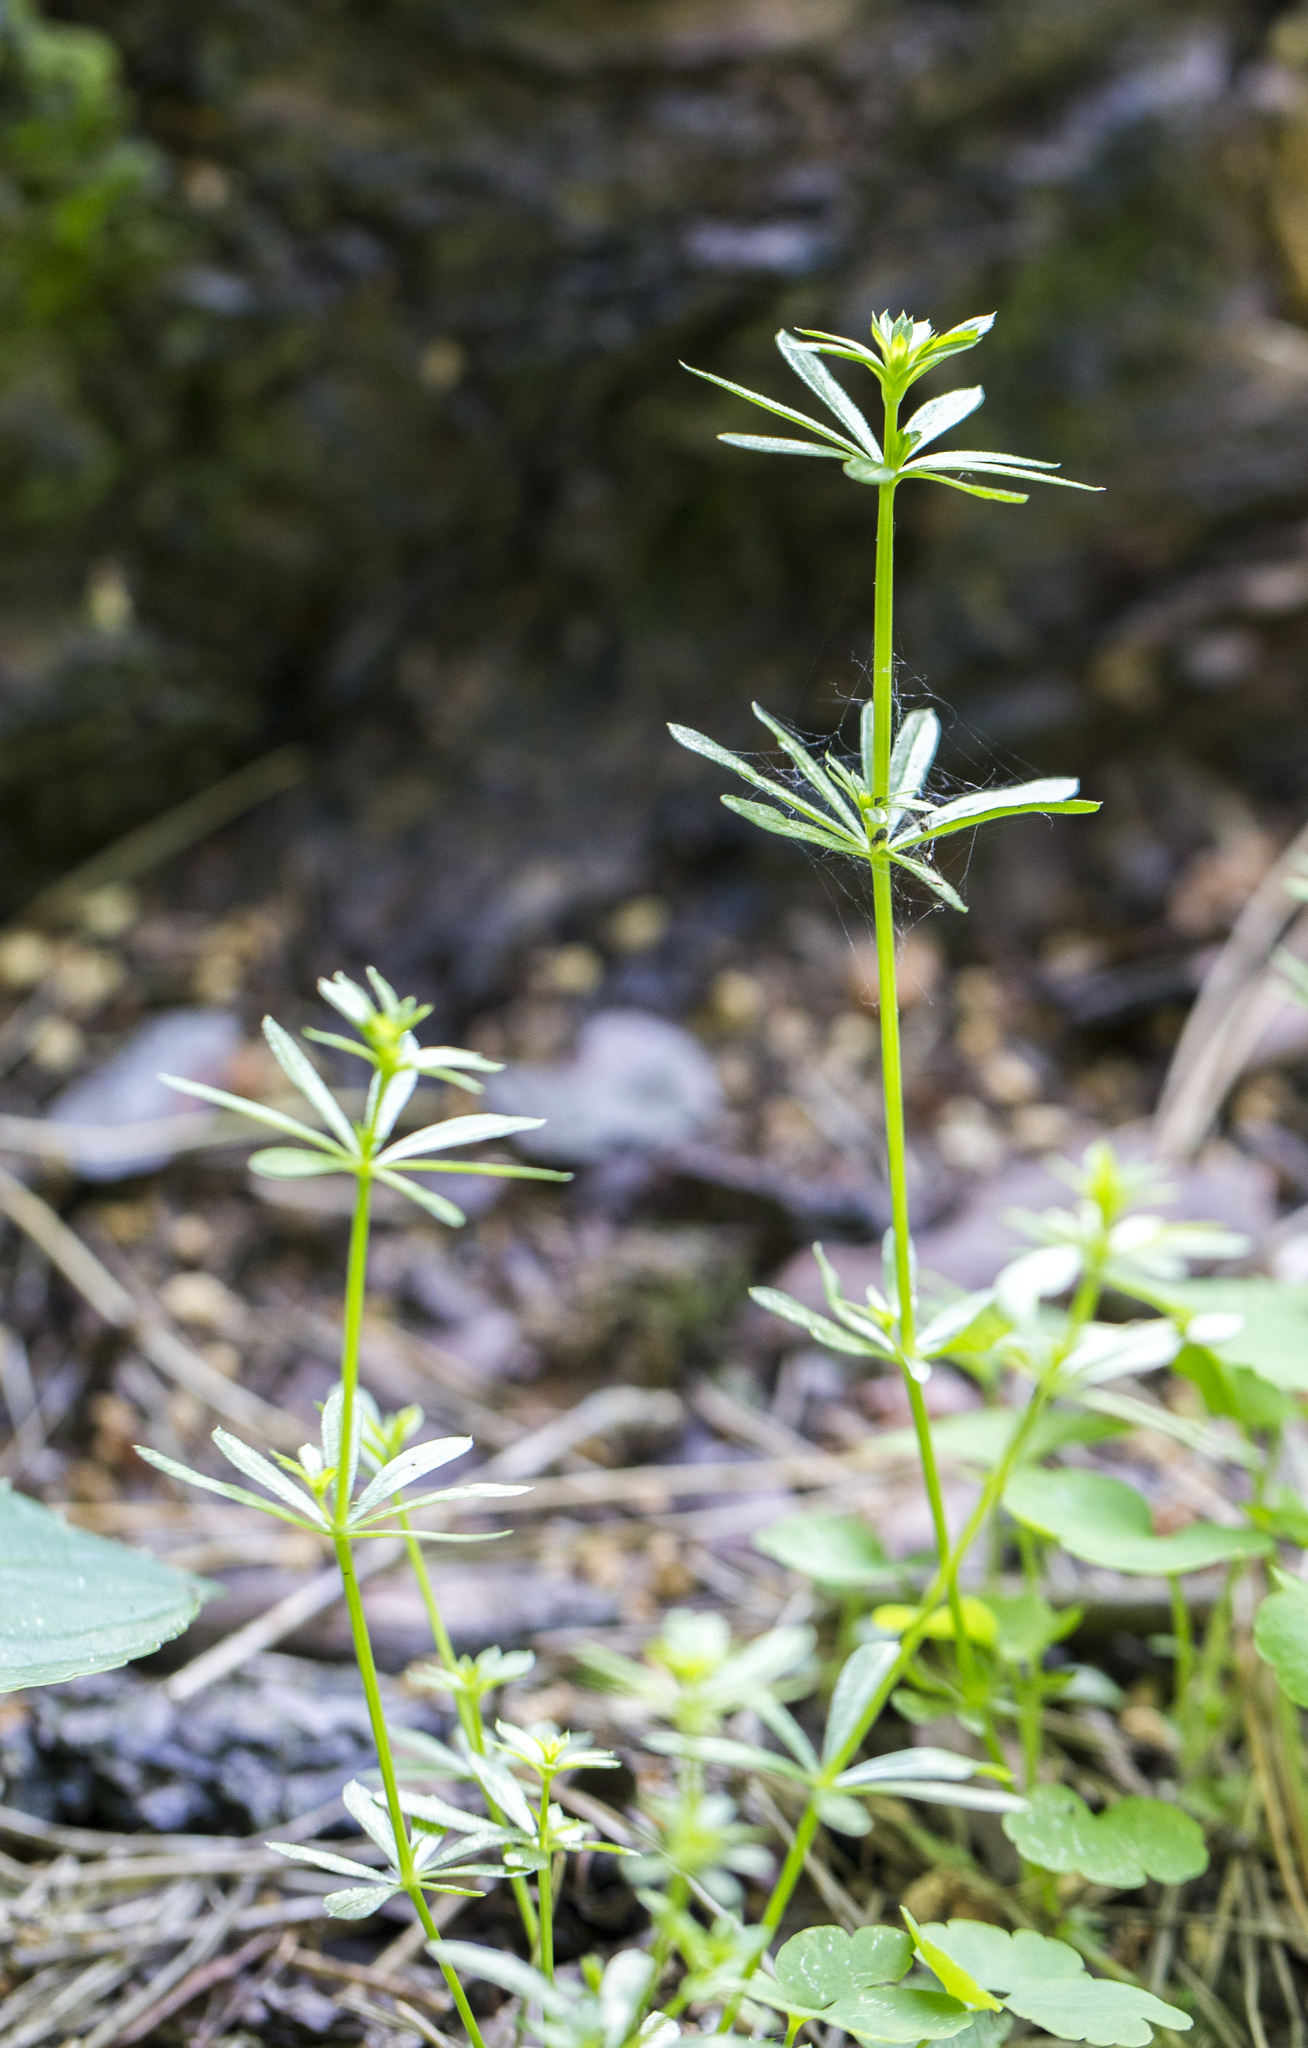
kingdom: Plantae
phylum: Tracheophyta
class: Magnoliopsida
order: Gentianales
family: Rubiaceae
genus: Galium
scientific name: Galium mollugo
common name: Hedge bedstraw
